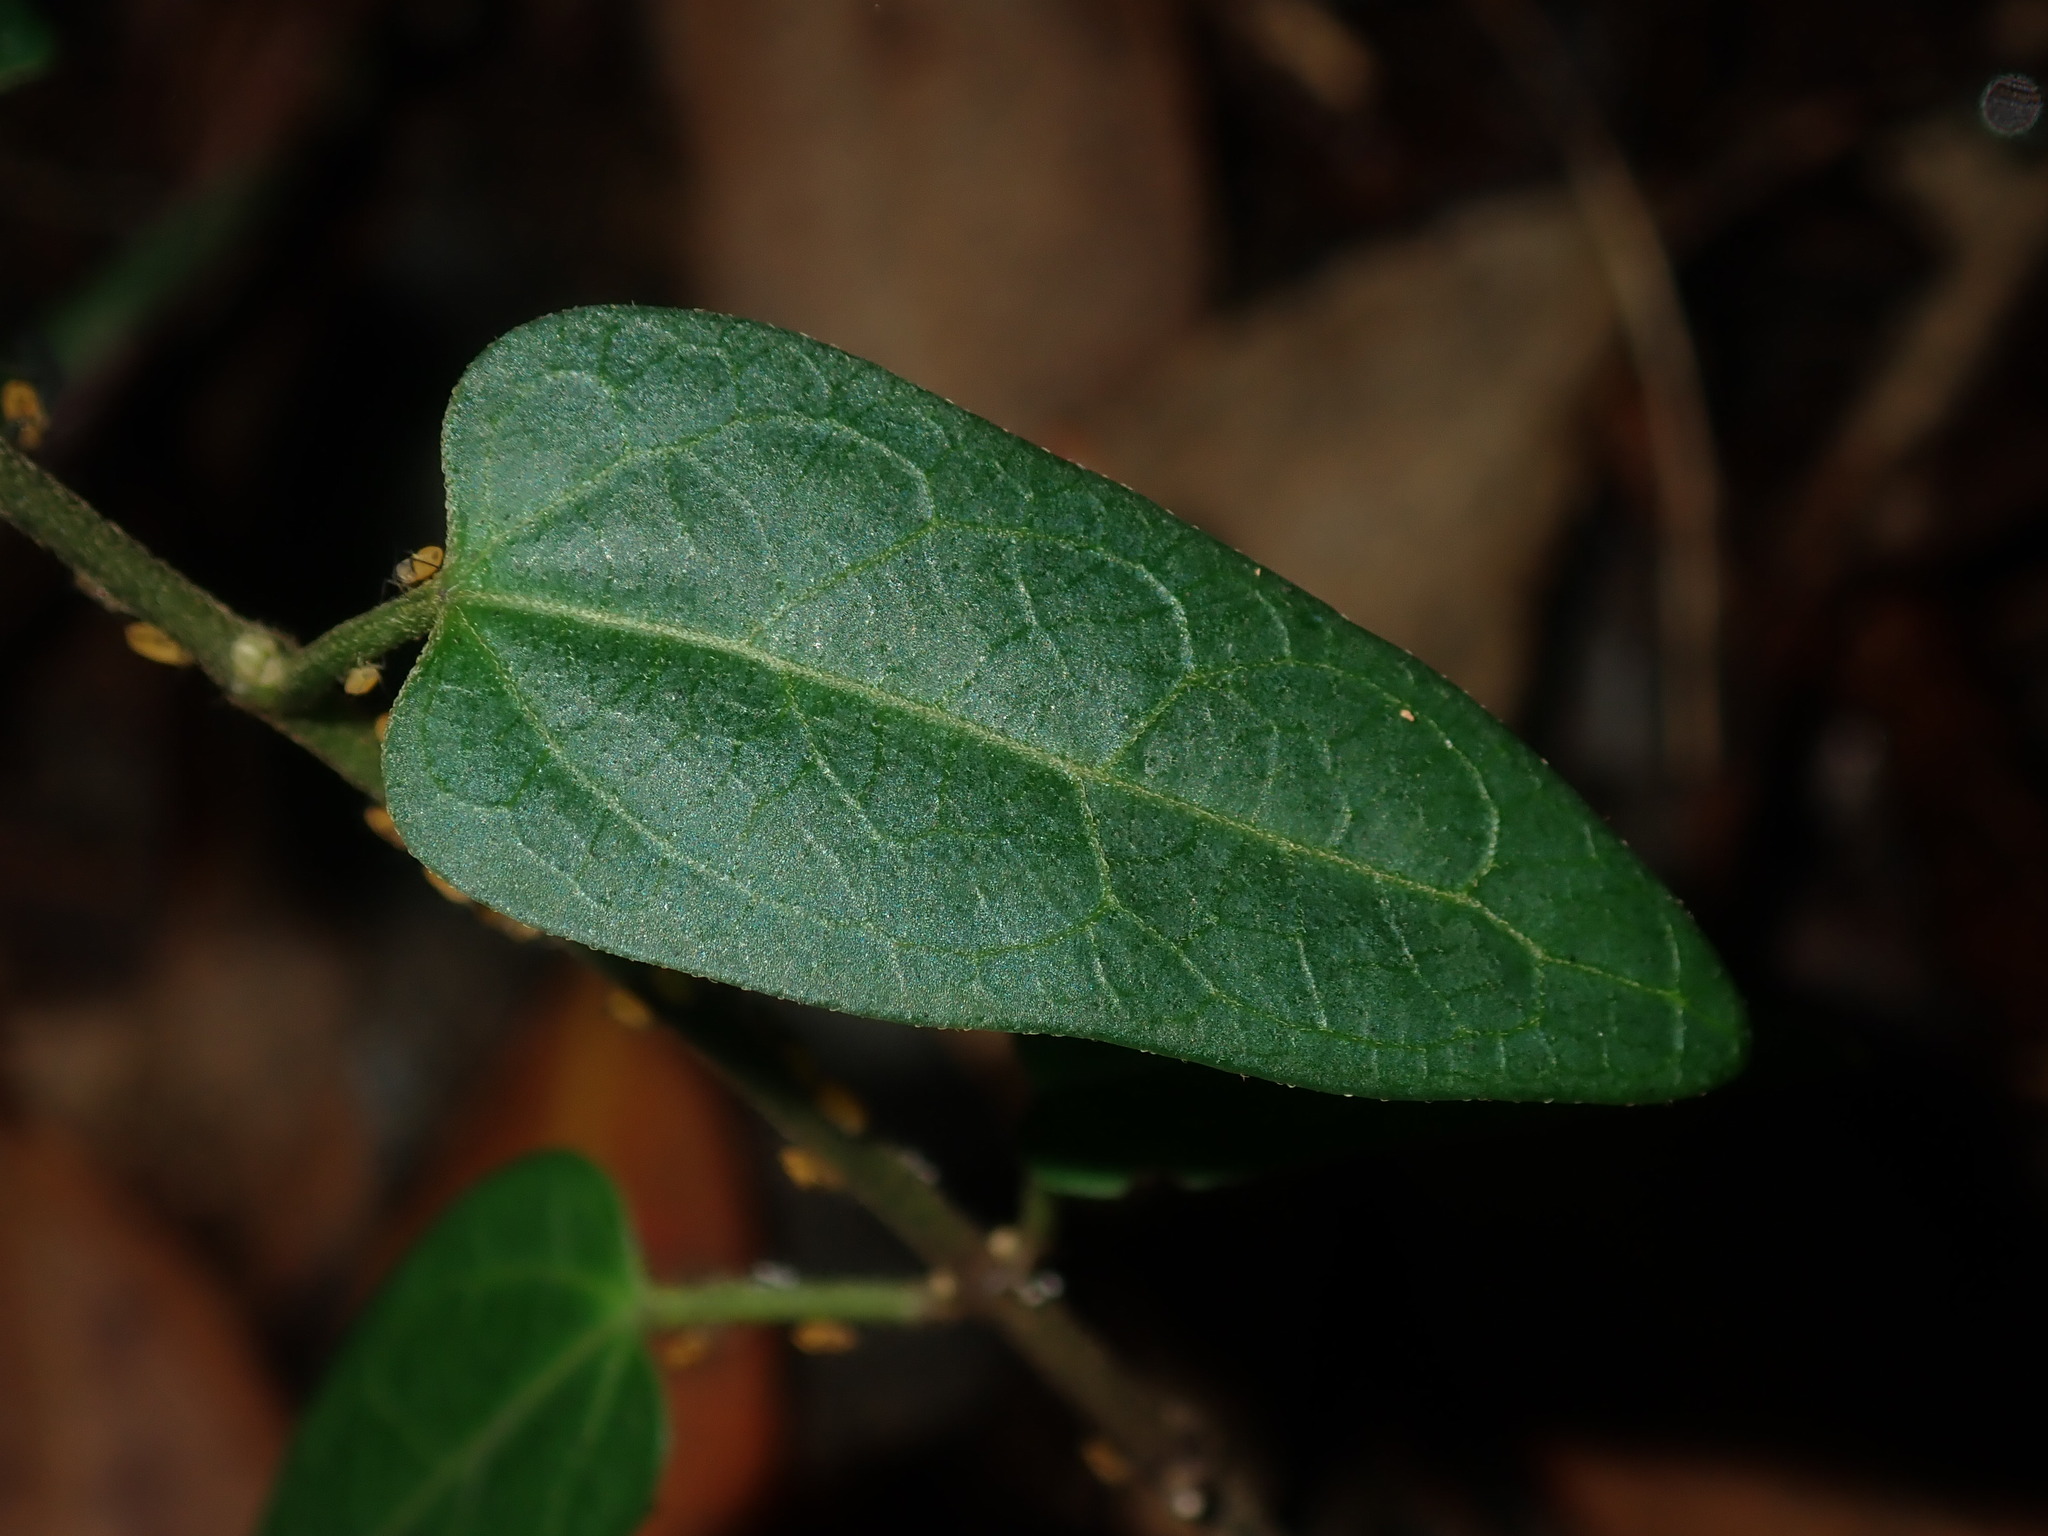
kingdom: Plantae
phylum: Tracheophyta
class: Magnoliopsida
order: Gentianales
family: Apocynaceae
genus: Vincetoxicum
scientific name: Vincetoxicum woollsii
